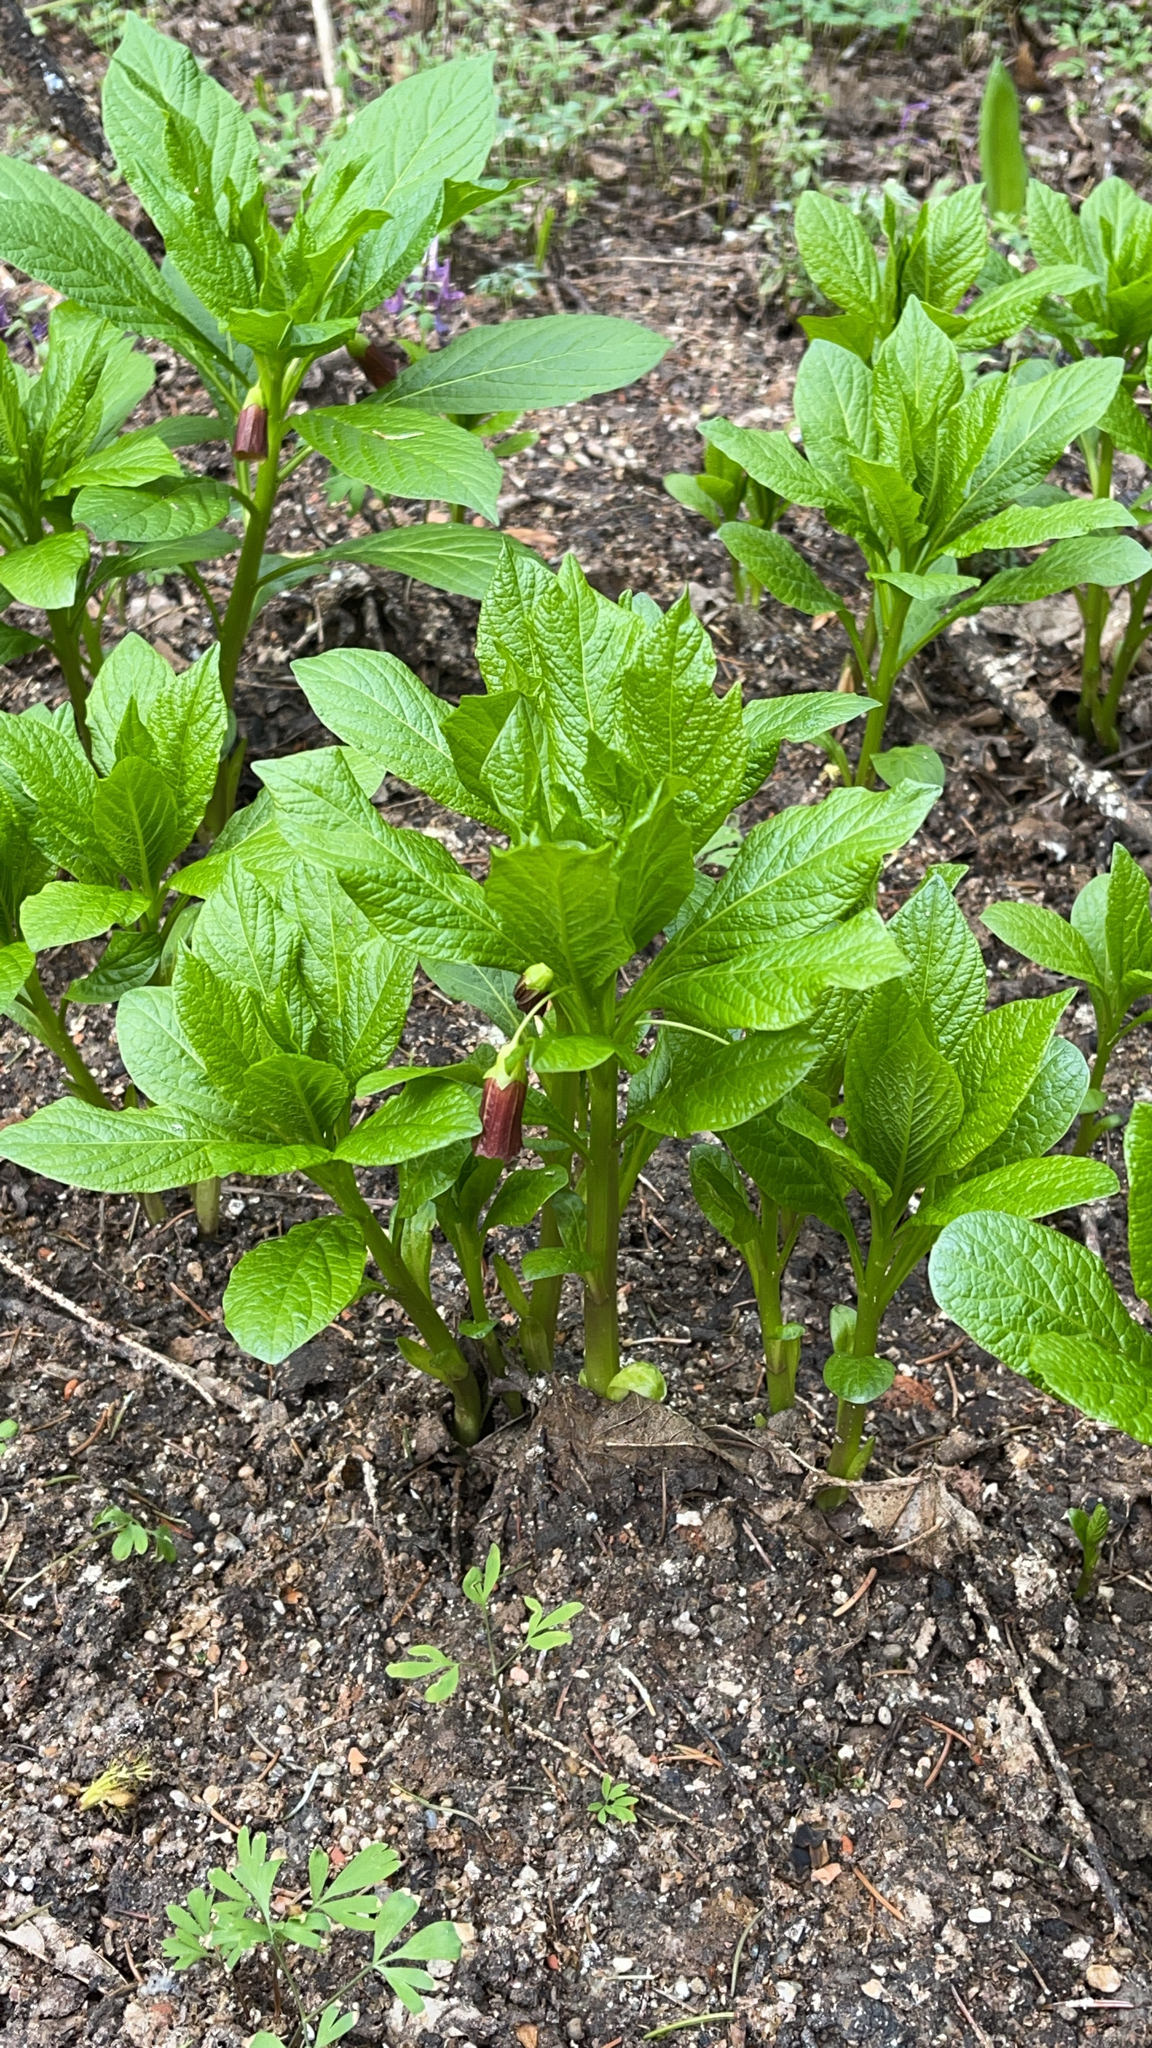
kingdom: Plantae
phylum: Tracheophyta
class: Magnoliopsida
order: Solanales
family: Solanaceae
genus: Scopolia
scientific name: Scopolia carniolica
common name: Scopolia
